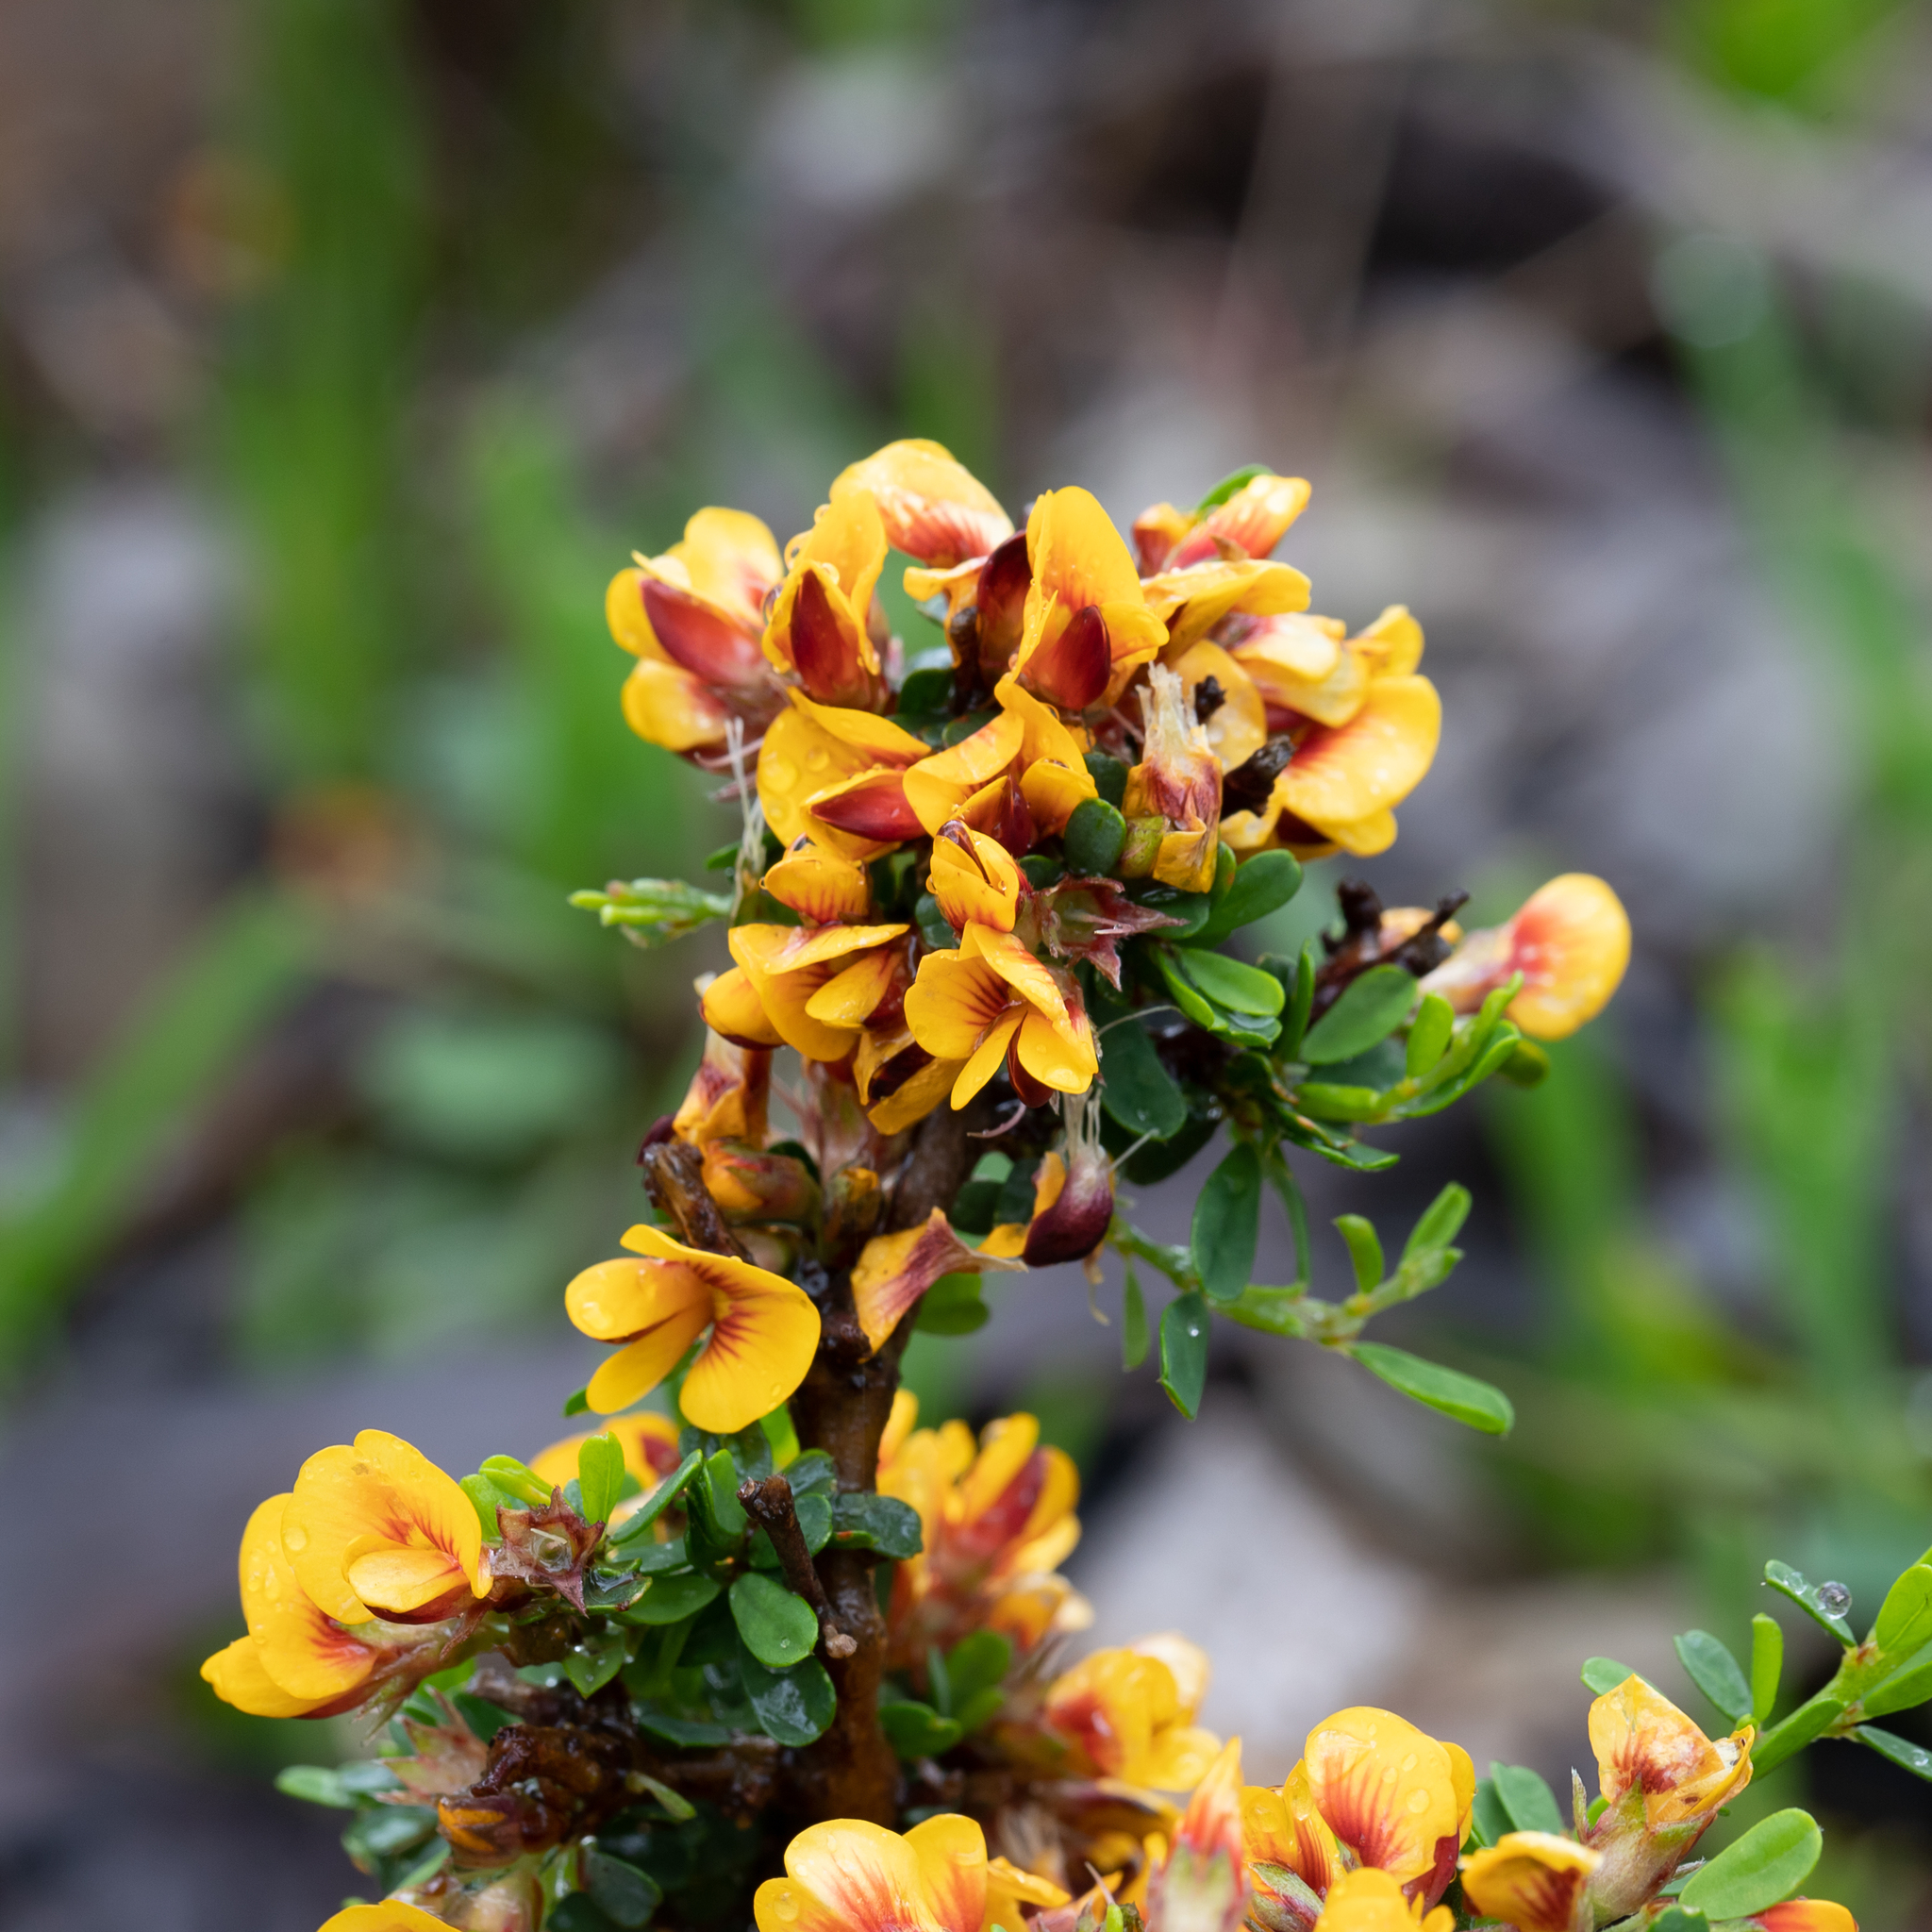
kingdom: Plantae
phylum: Tracheophyta
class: Magnoliopsida
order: Fabales
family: Fabaceae
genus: Pultenaea
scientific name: Pultenaea largiflorens
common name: Twiggy bush-pea
